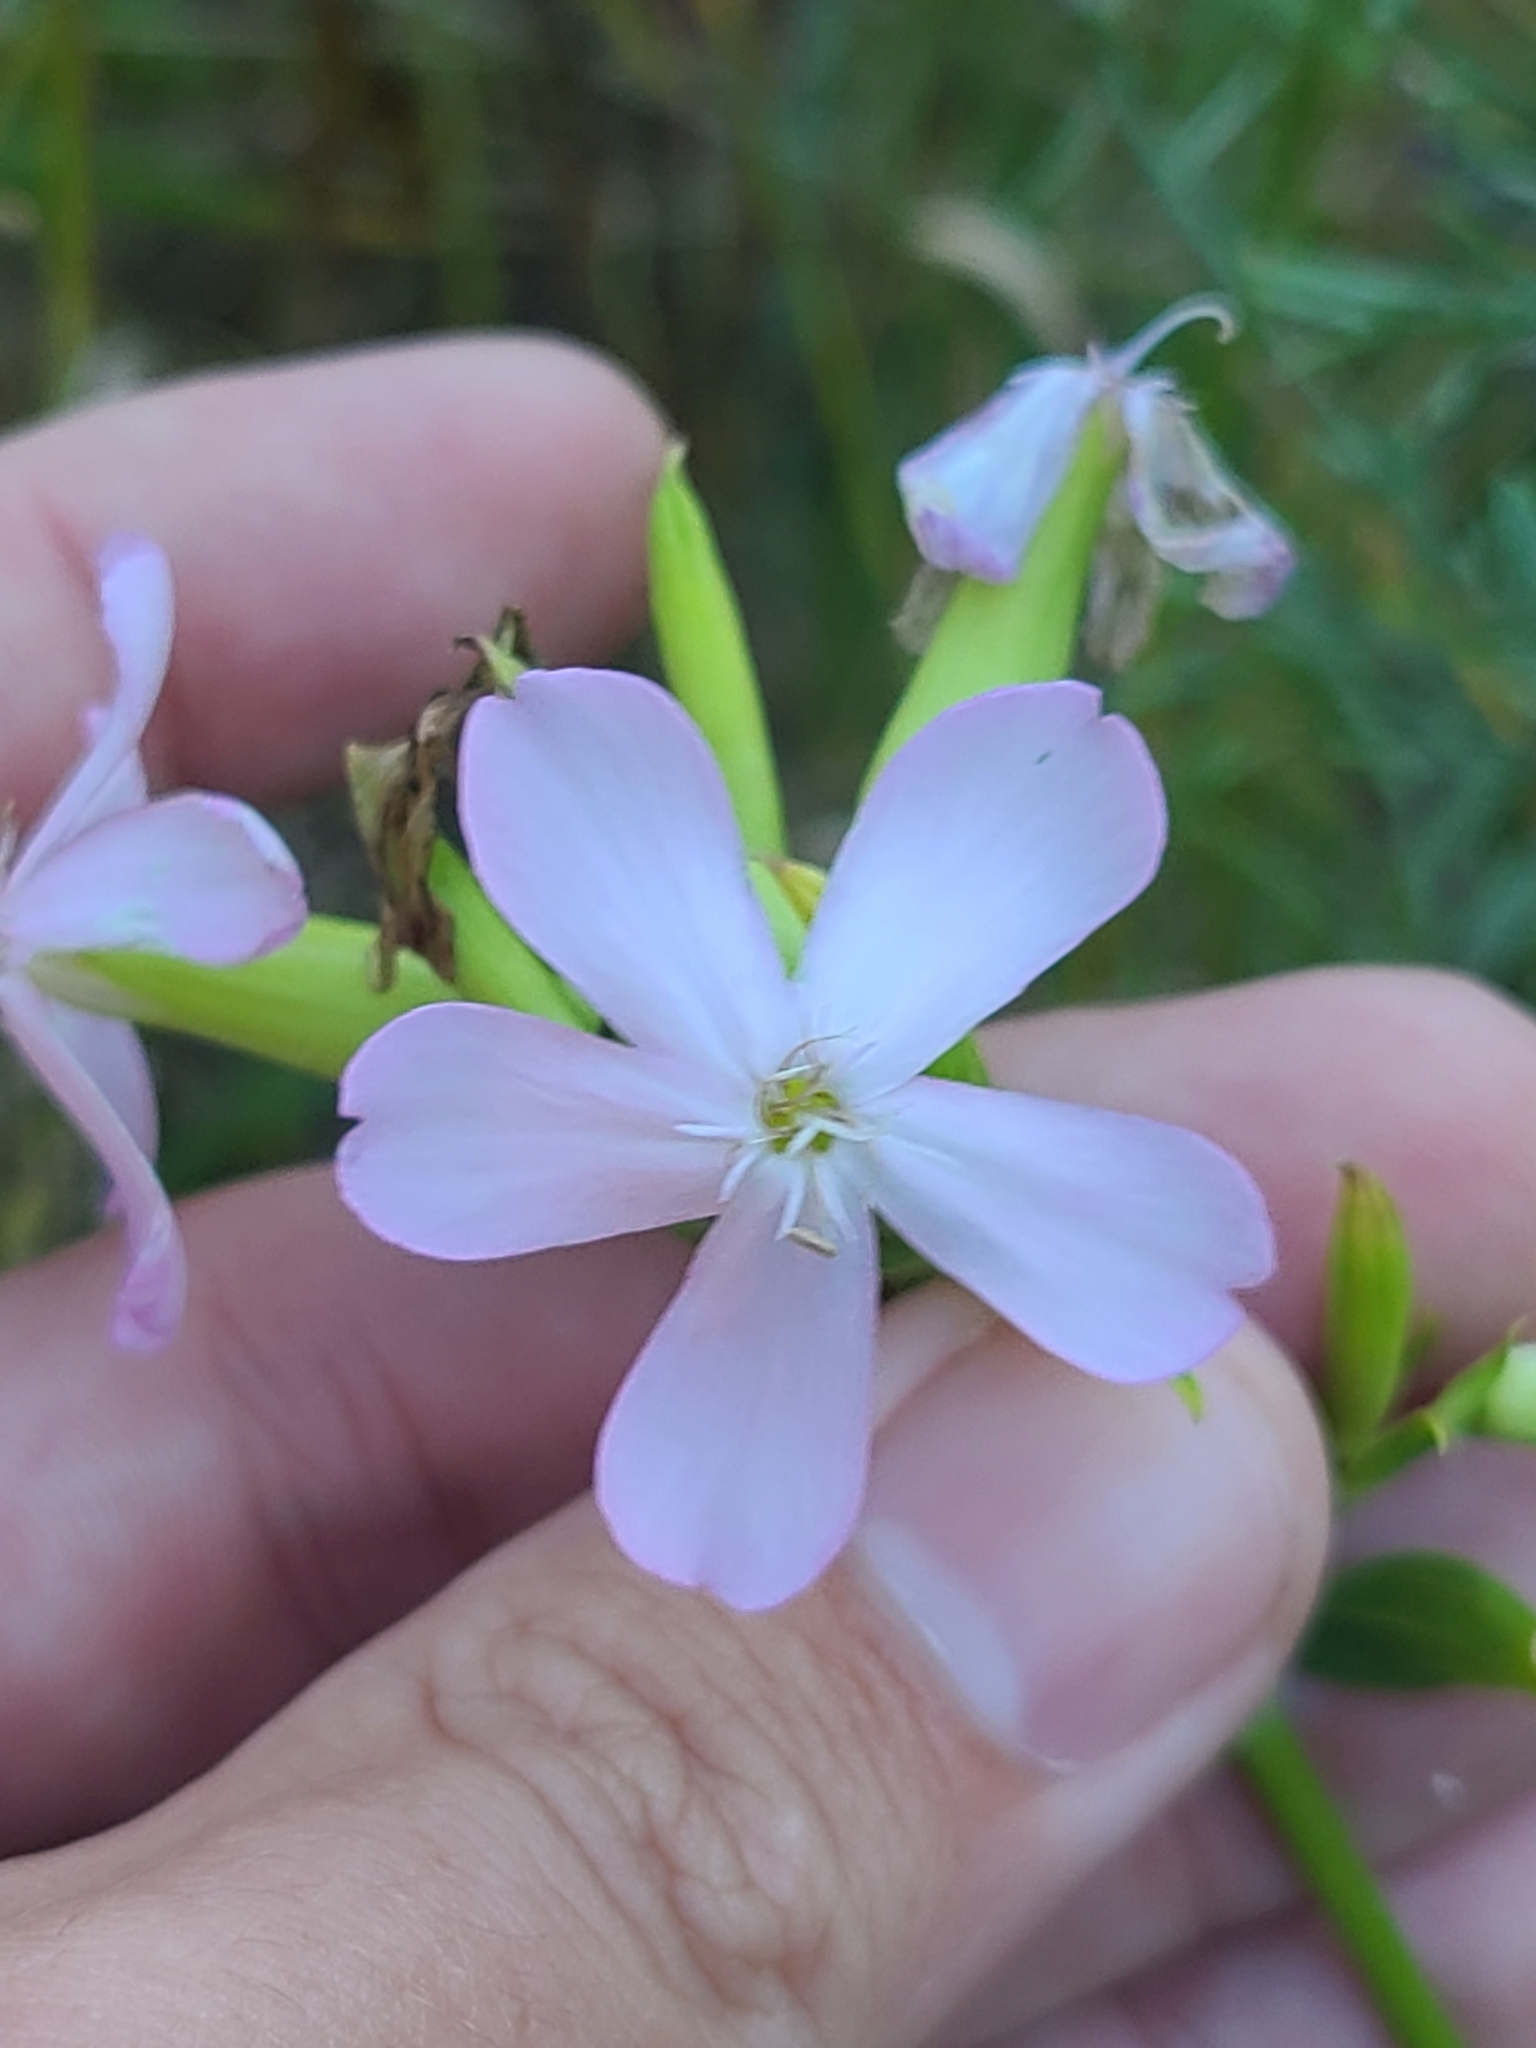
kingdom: Plantae
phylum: Tracheophyta
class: Magnoliopsida
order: Caryophyllales
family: Caryophyllaceae
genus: Saponaria
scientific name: Saponaria officinalis
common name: Soapwort
